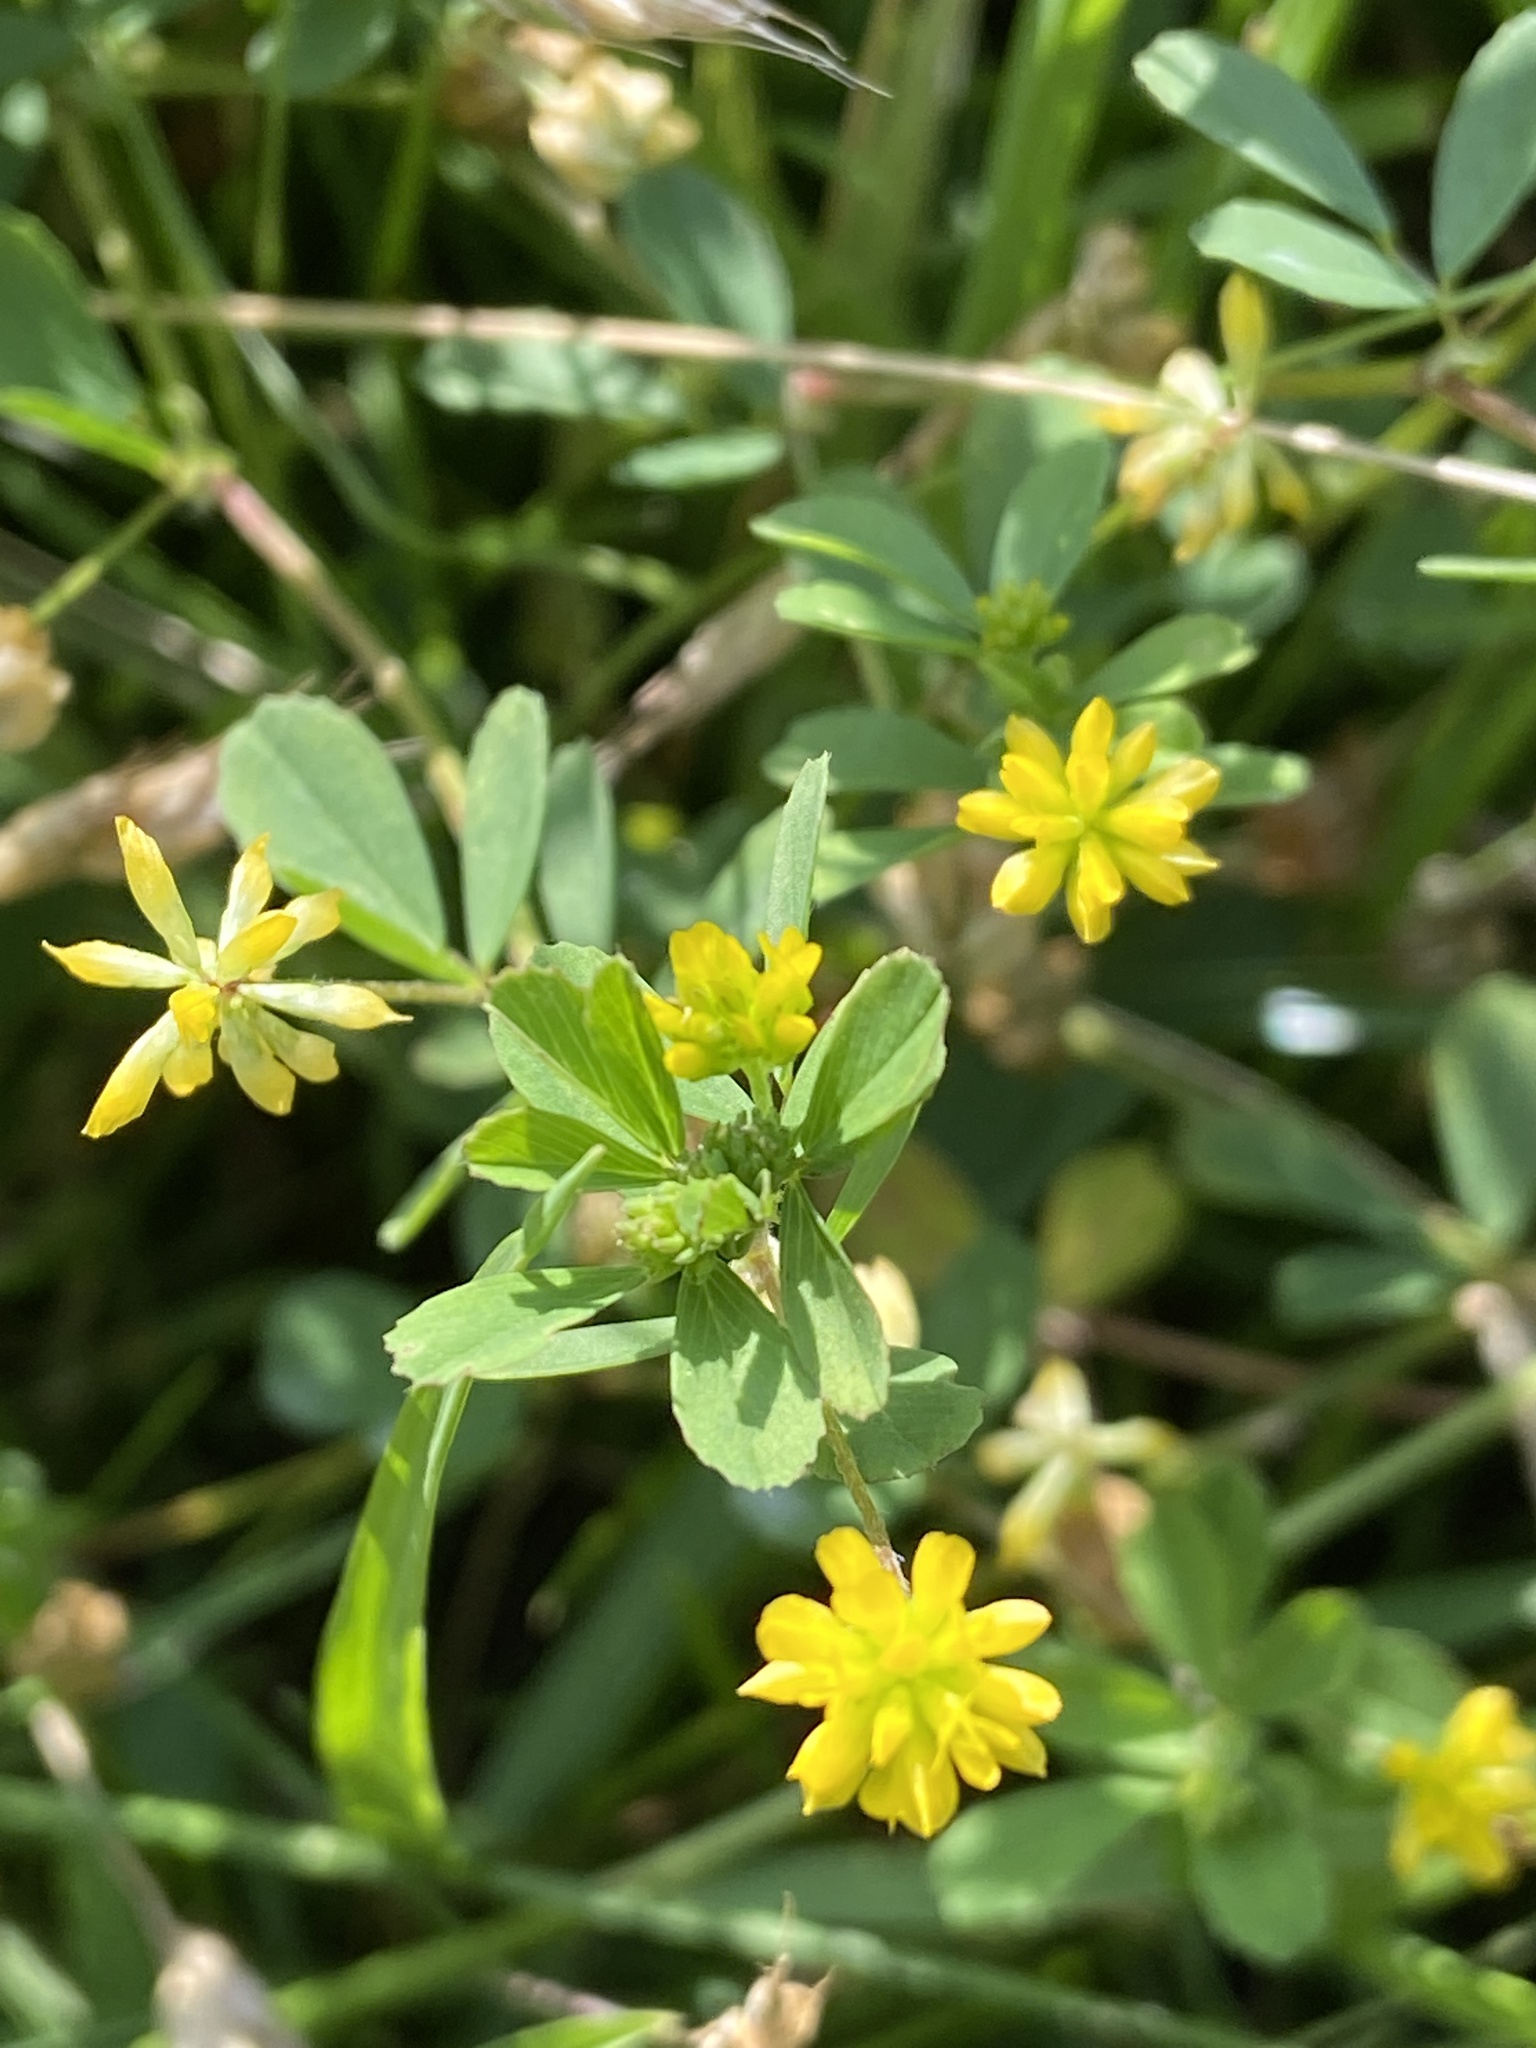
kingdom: Plantae
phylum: Tracheophyta
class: Magnoliopsida
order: Fabales
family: Fabaceae
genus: Trifolium
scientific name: Trifolium dubium
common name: Suckling clover
